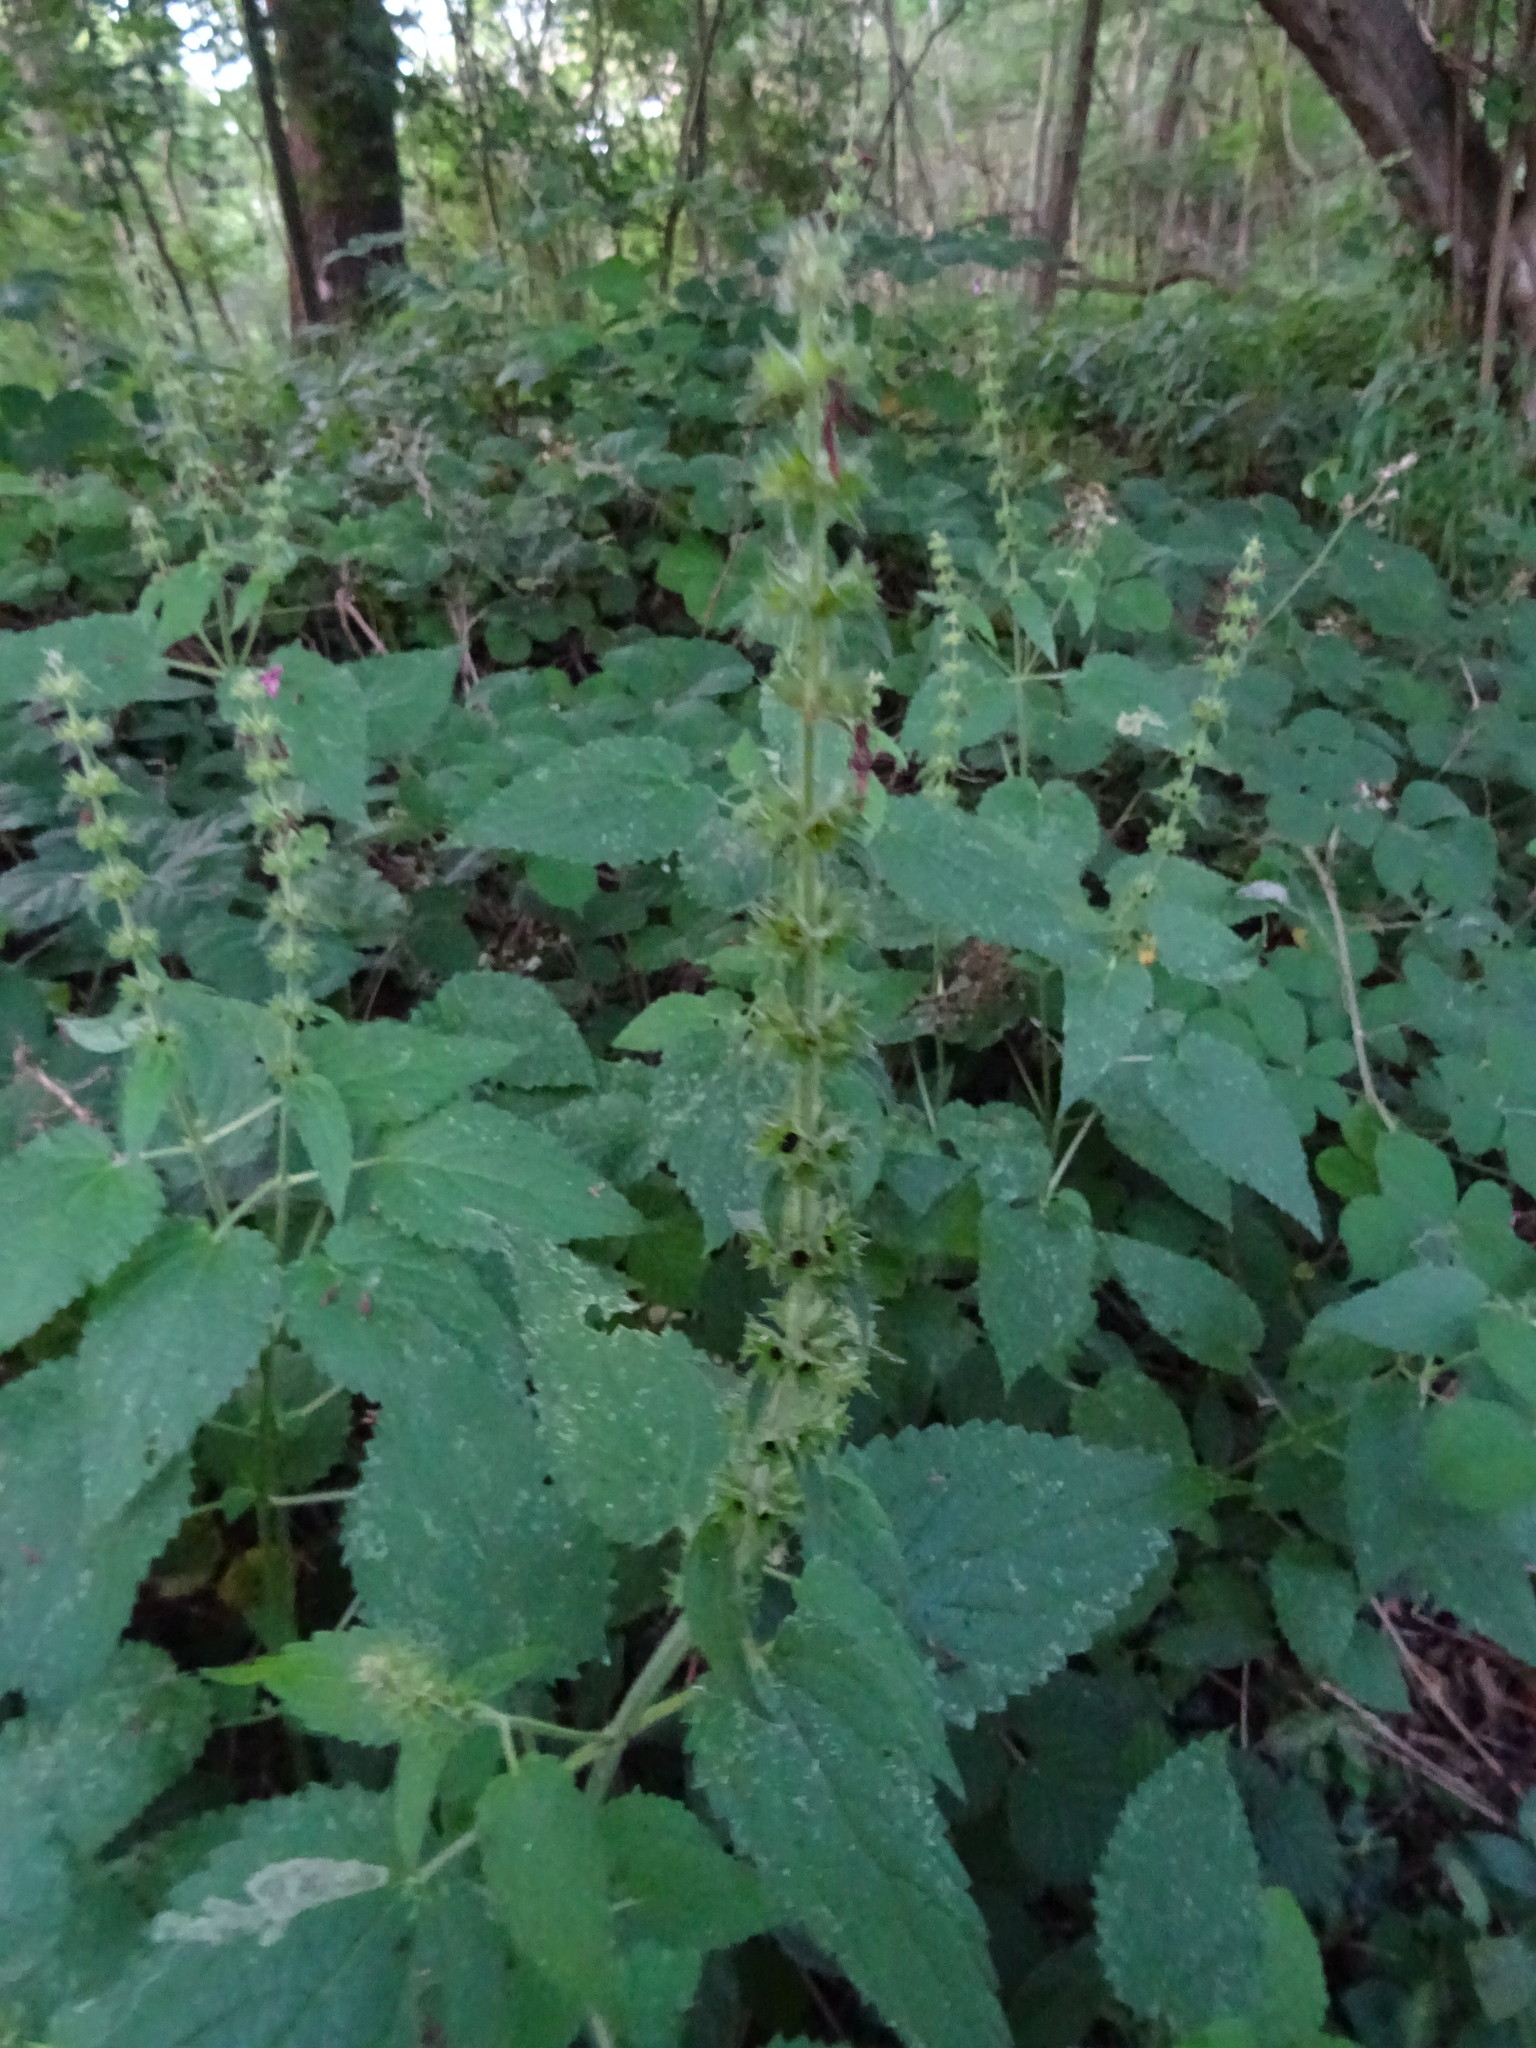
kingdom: Plantae
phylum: Tracheophyta
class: Magnoliopsida
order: Lamiales
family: Lamiaceae
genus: Stachys
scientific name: Stachys sylvatica
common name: Hedge woundwort
